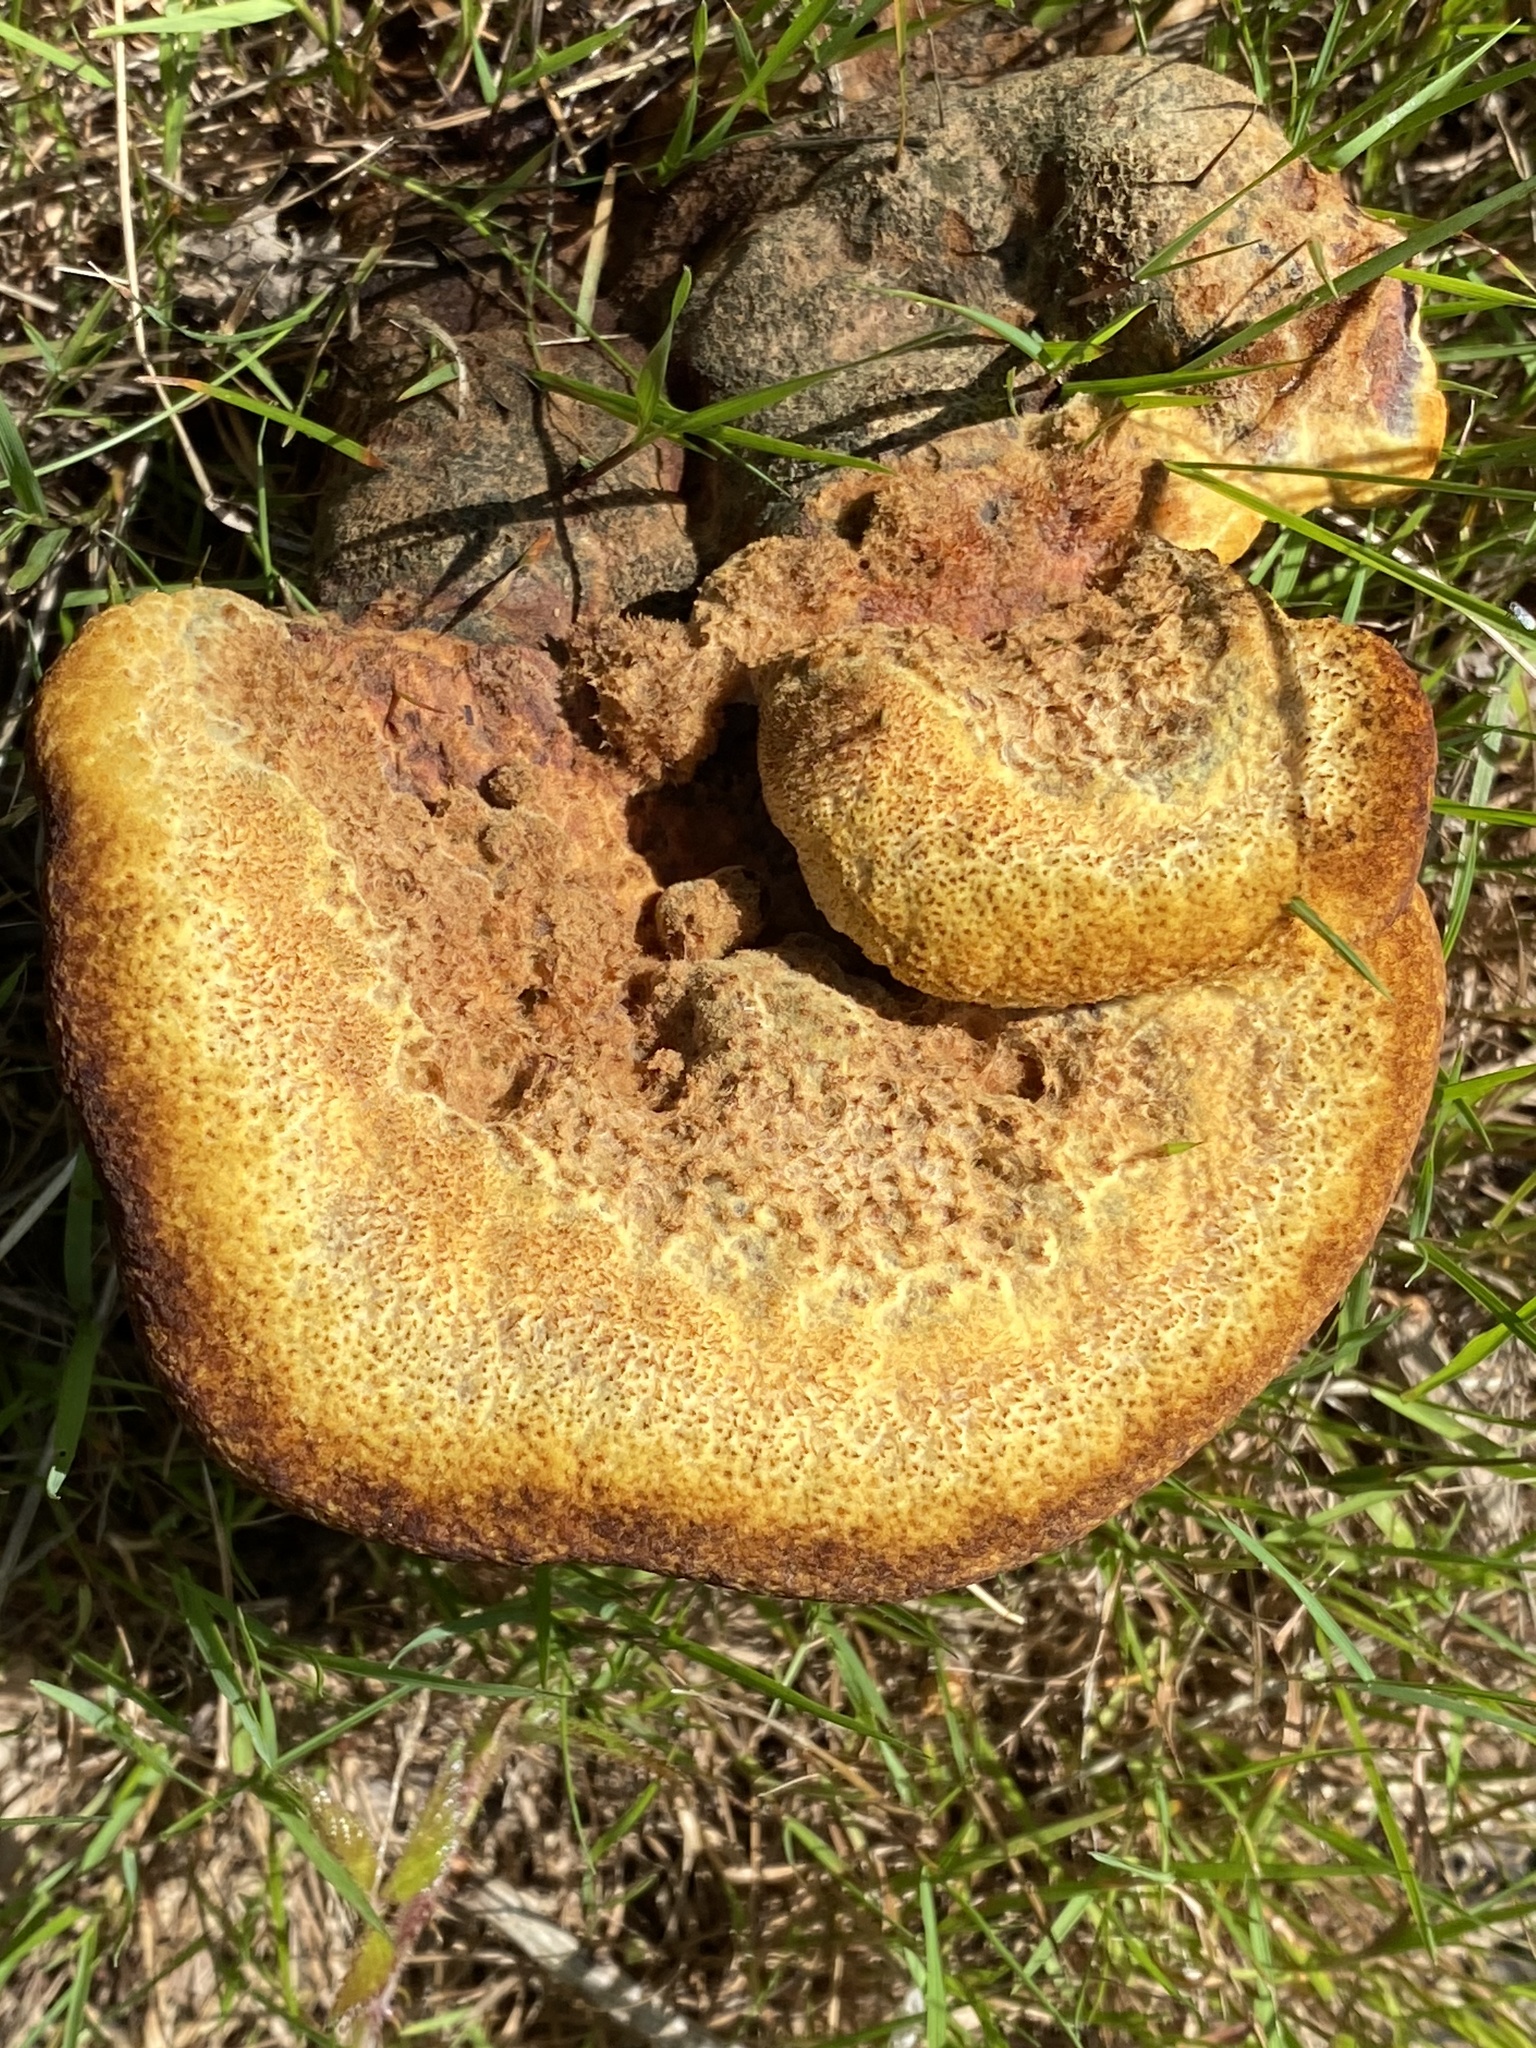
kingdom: Fungi
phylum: Basidiomycota
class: Agaricomycetes
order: Polyporales
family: Laetiporaceae
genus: Phaeolus
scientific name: Phaeolus schweinitzii
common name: Dyer's mazegill
